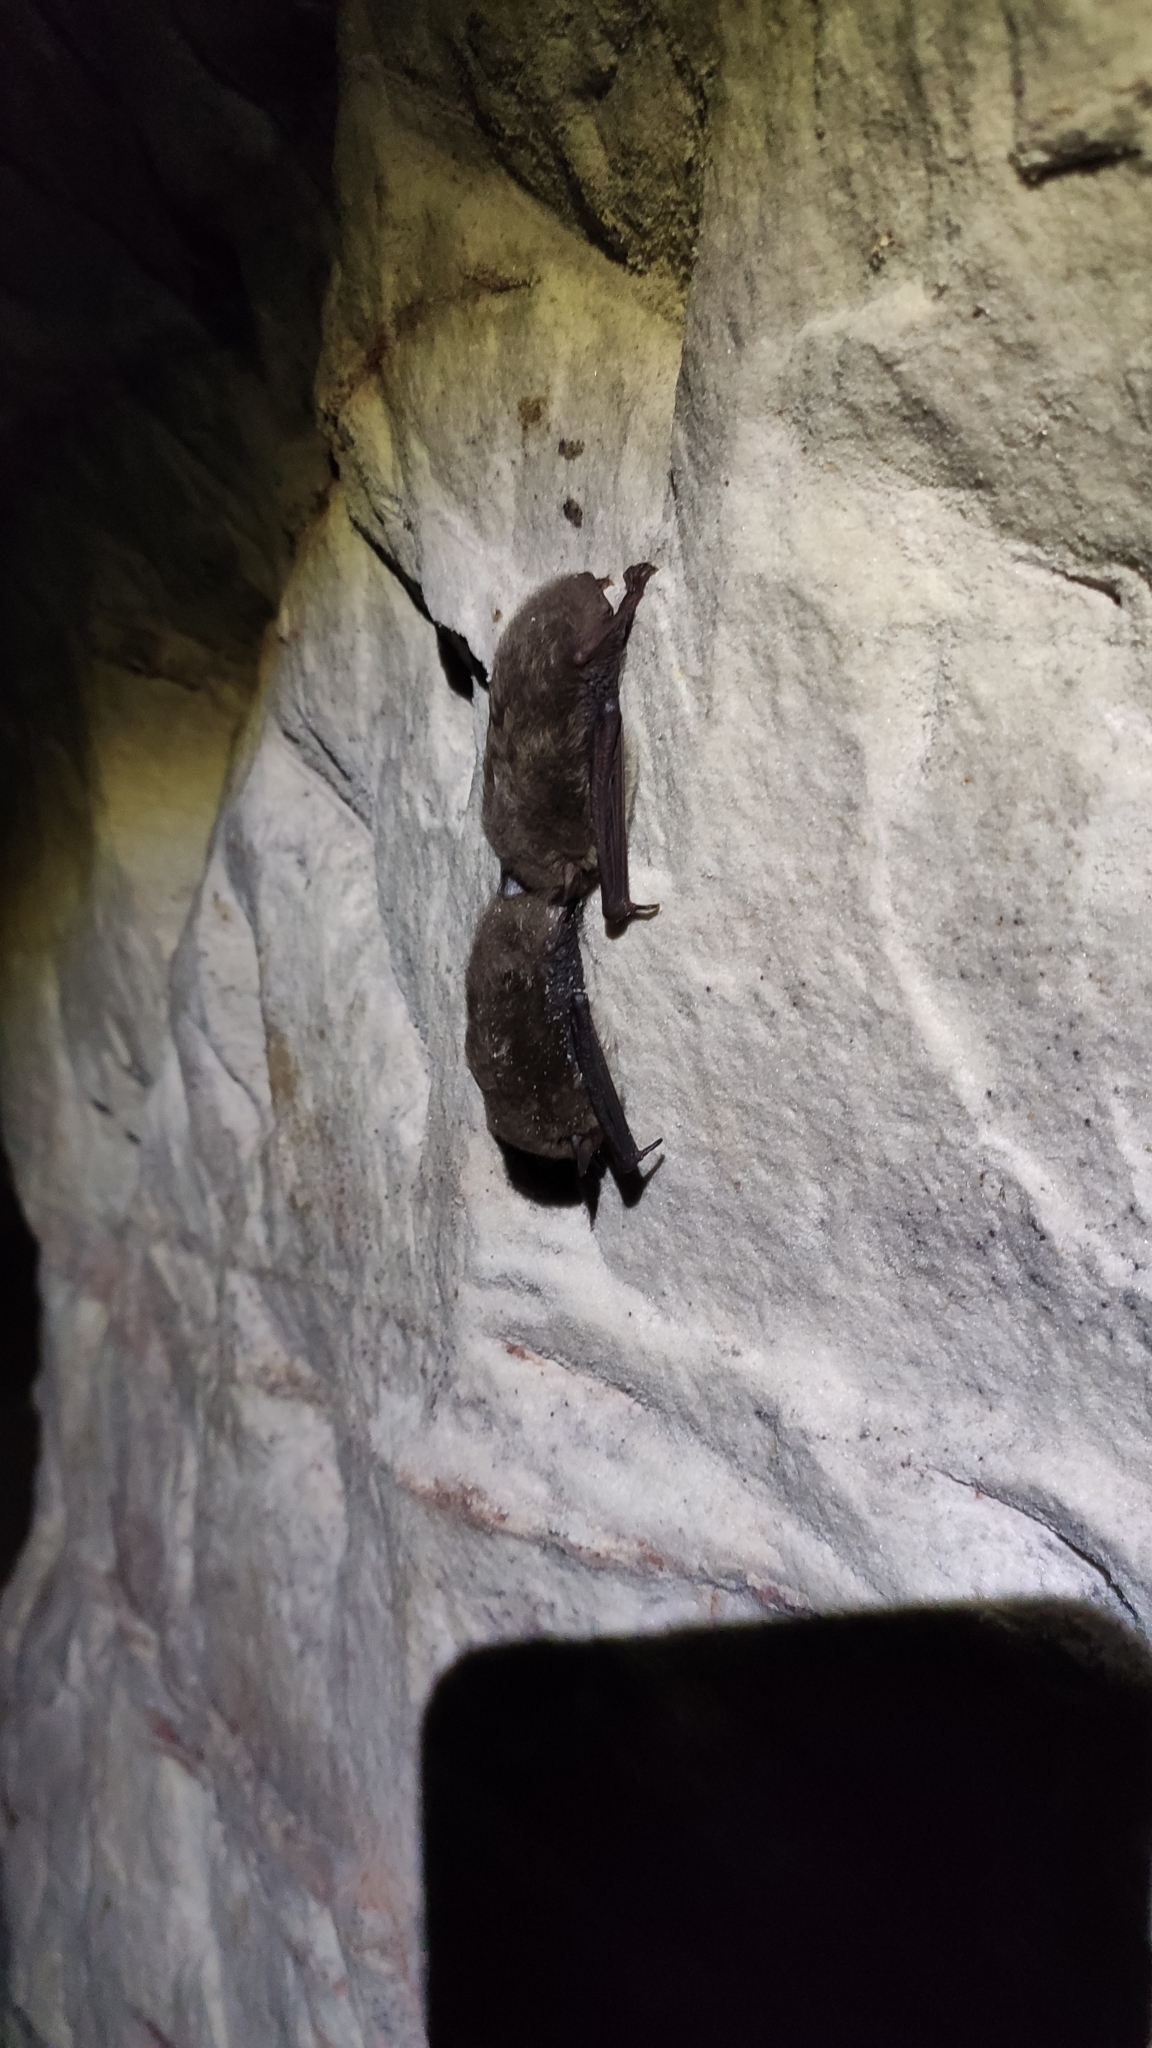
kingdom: Animalia
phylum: Chordata
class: Mammalia
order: Chiroptera
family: Vespertilionidae
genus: Myotis
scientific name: Myotis daubentonii
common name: Daubenton's myotis
